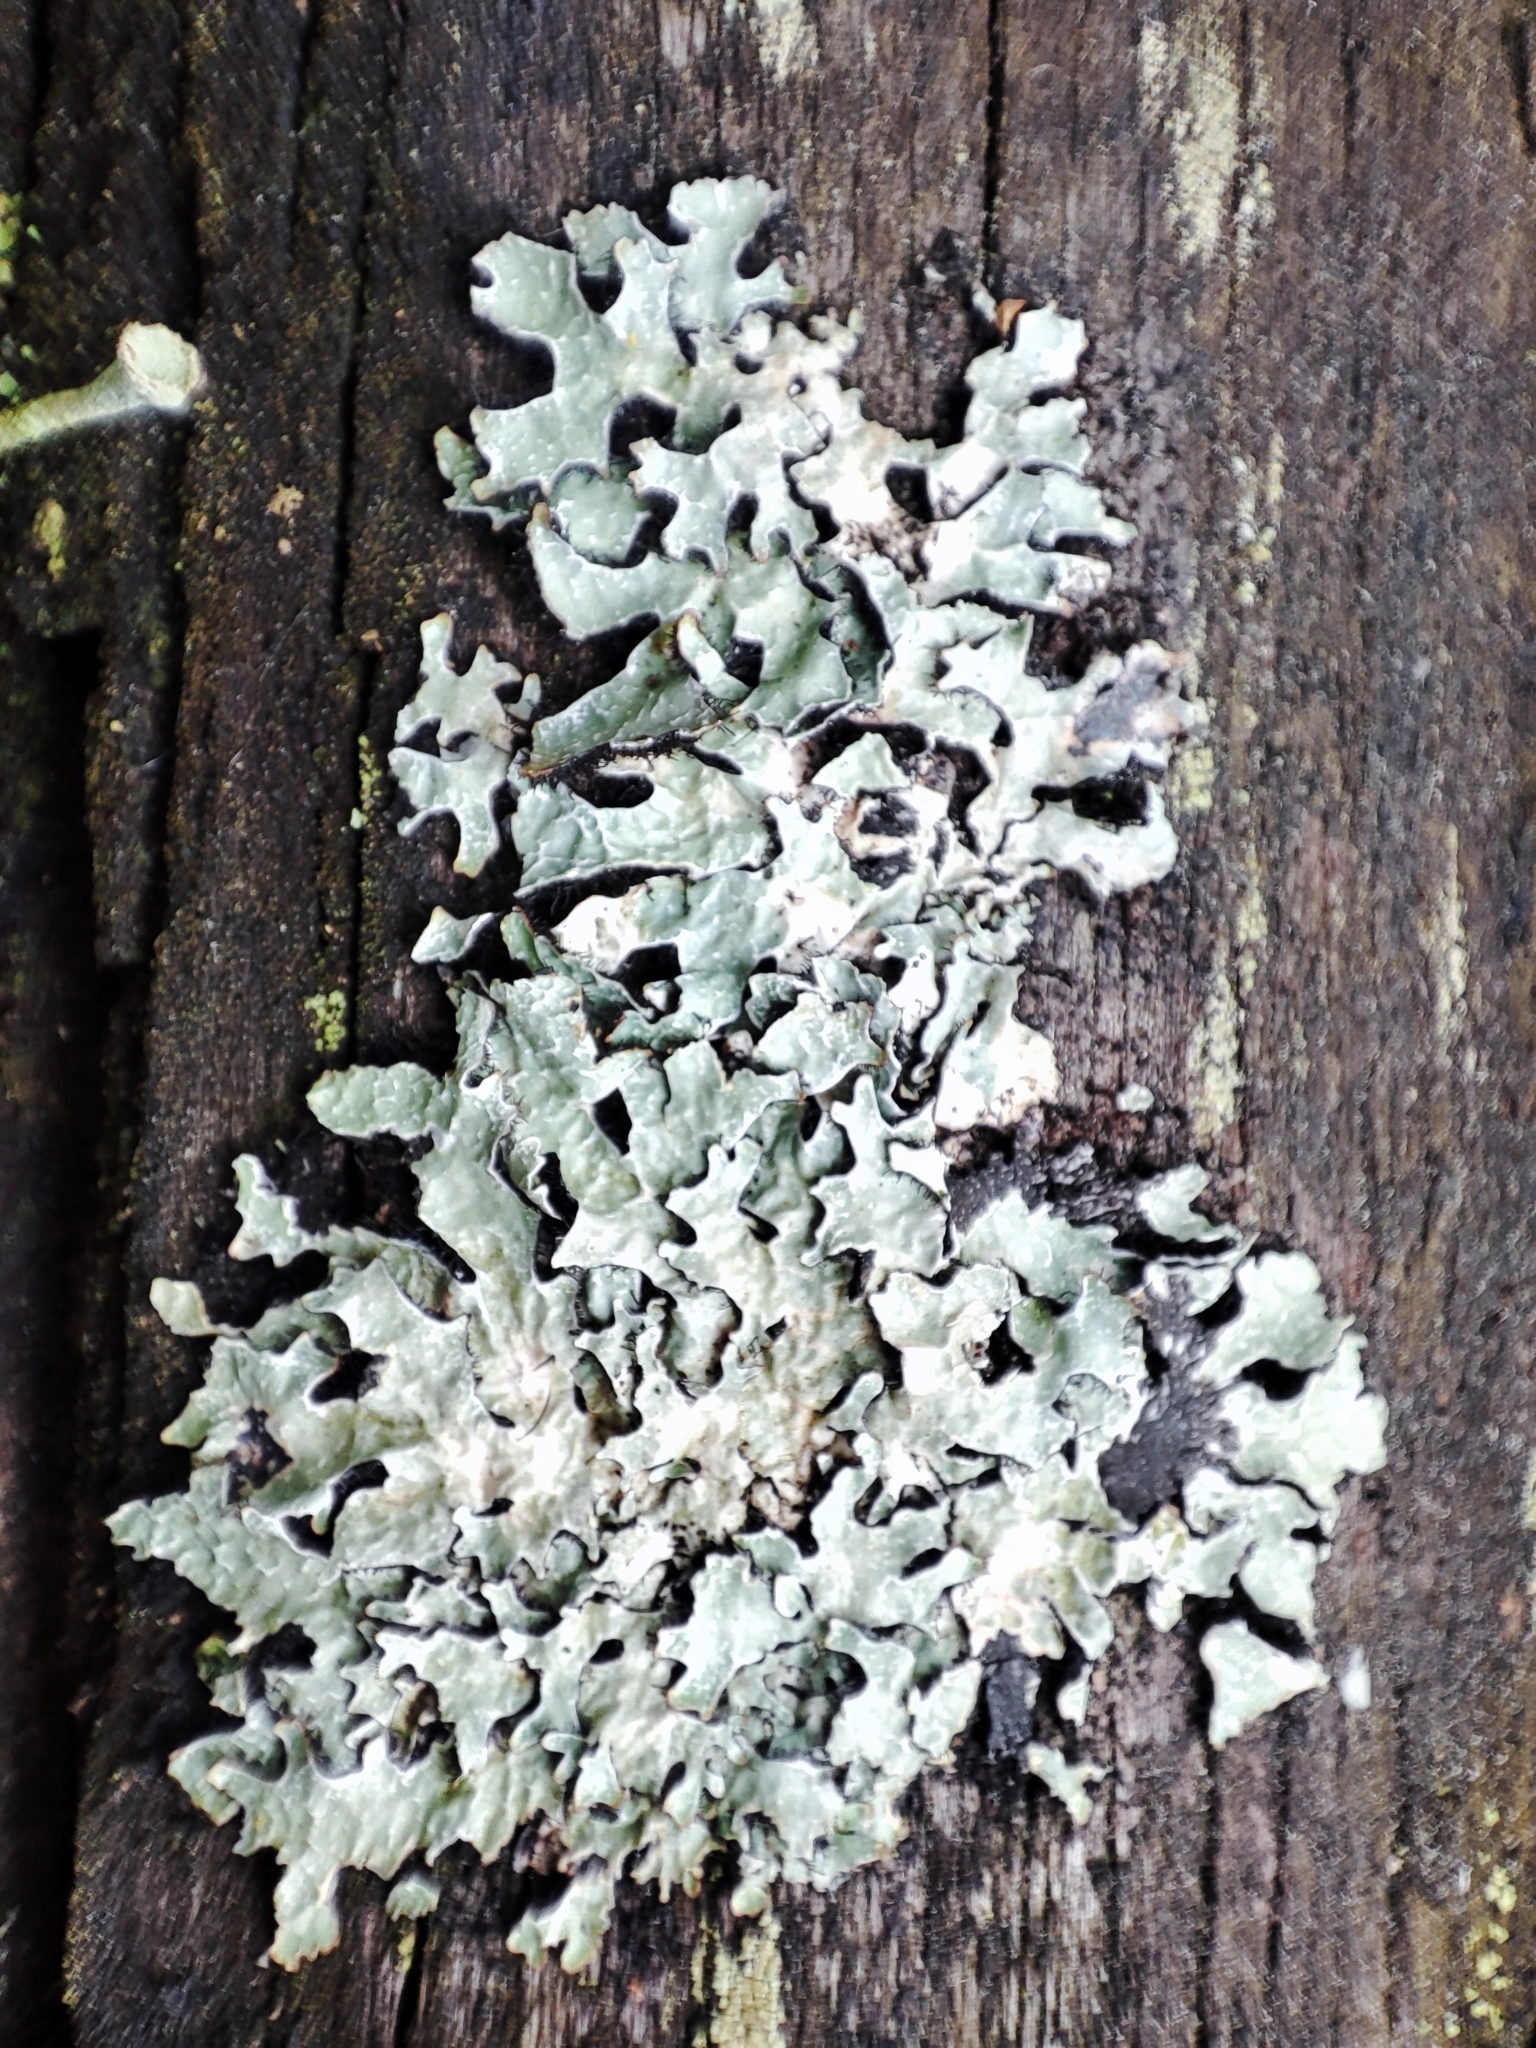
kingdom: Fungi
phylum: Ascomycota
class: Lecanoromycetes
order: Lecanorales
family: Parmeliaceae
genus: Parmelia
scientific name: Parmelia sulcata
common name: Netted shield lichen
